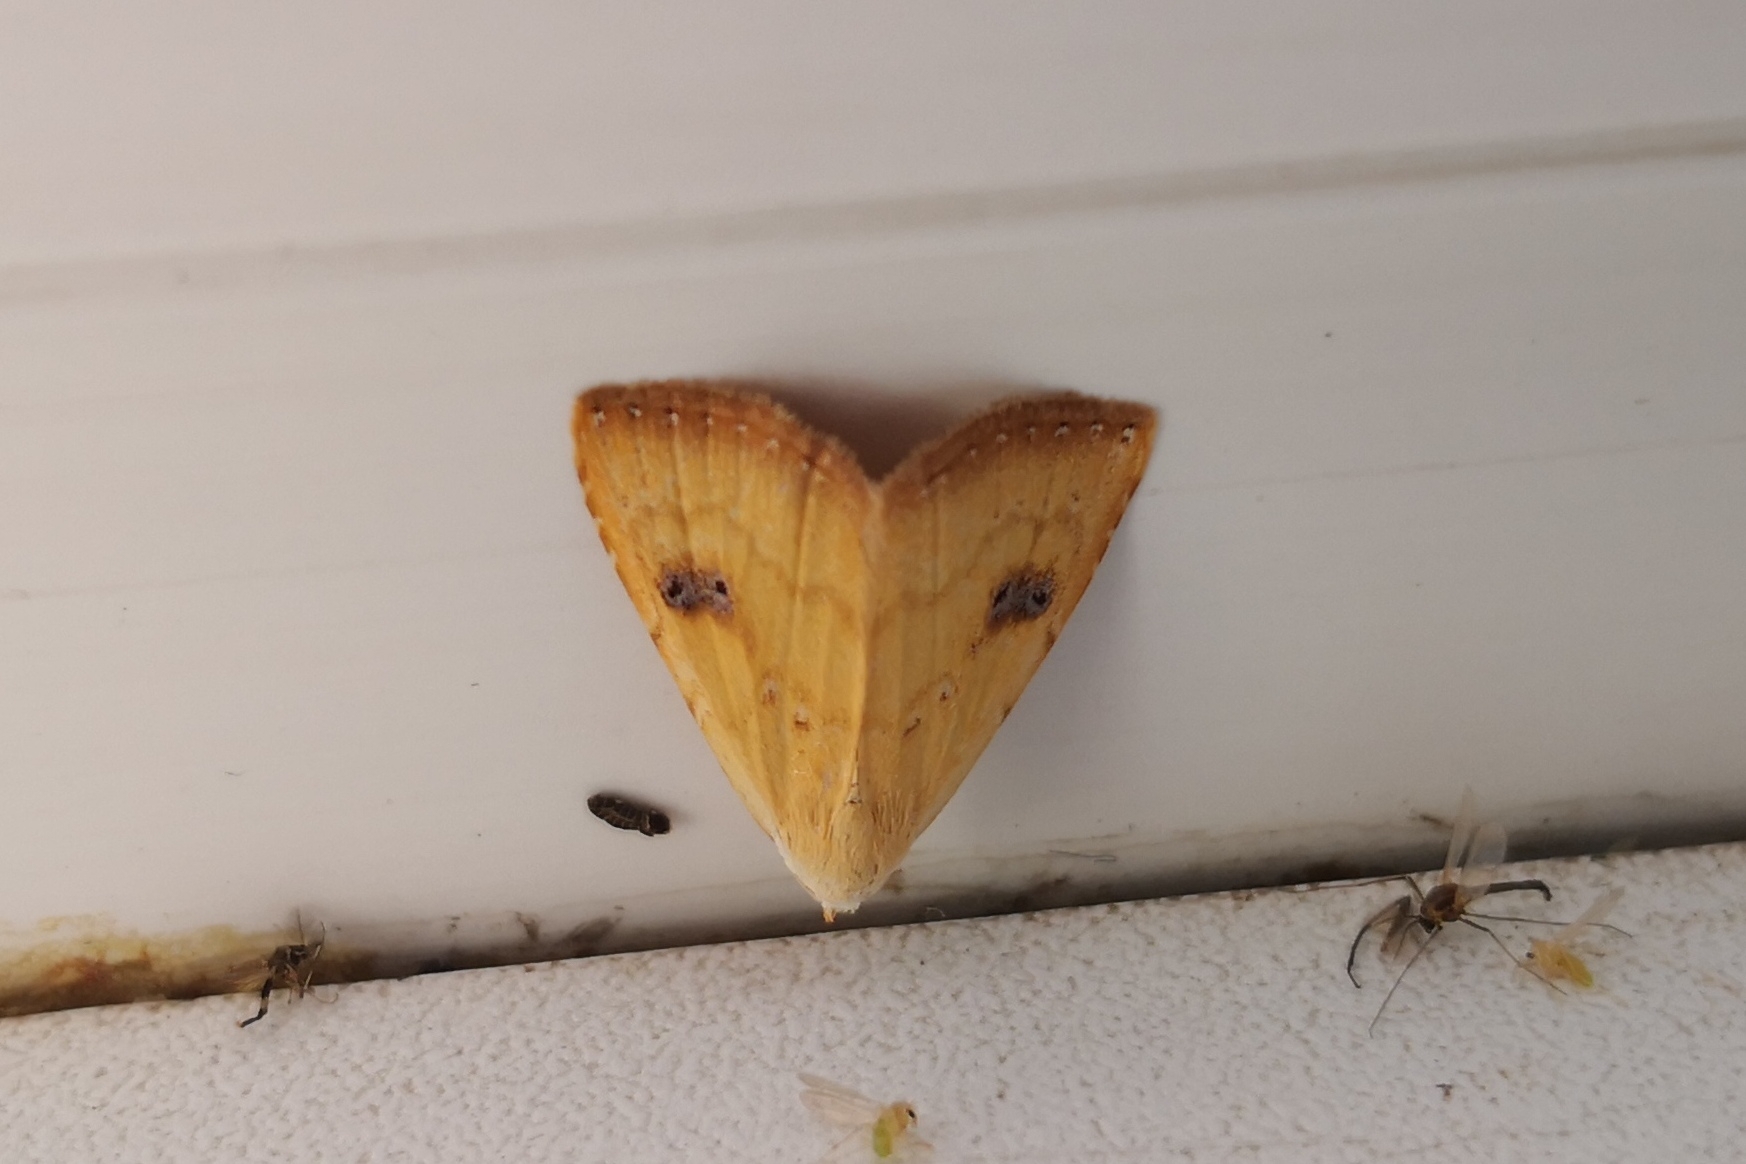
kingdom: Animalia
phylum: Arthropoda
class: Insecta
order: Lepidoptera
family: Erebidae
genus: Rivula
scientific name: Rivula sericealis
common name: Straw dot
